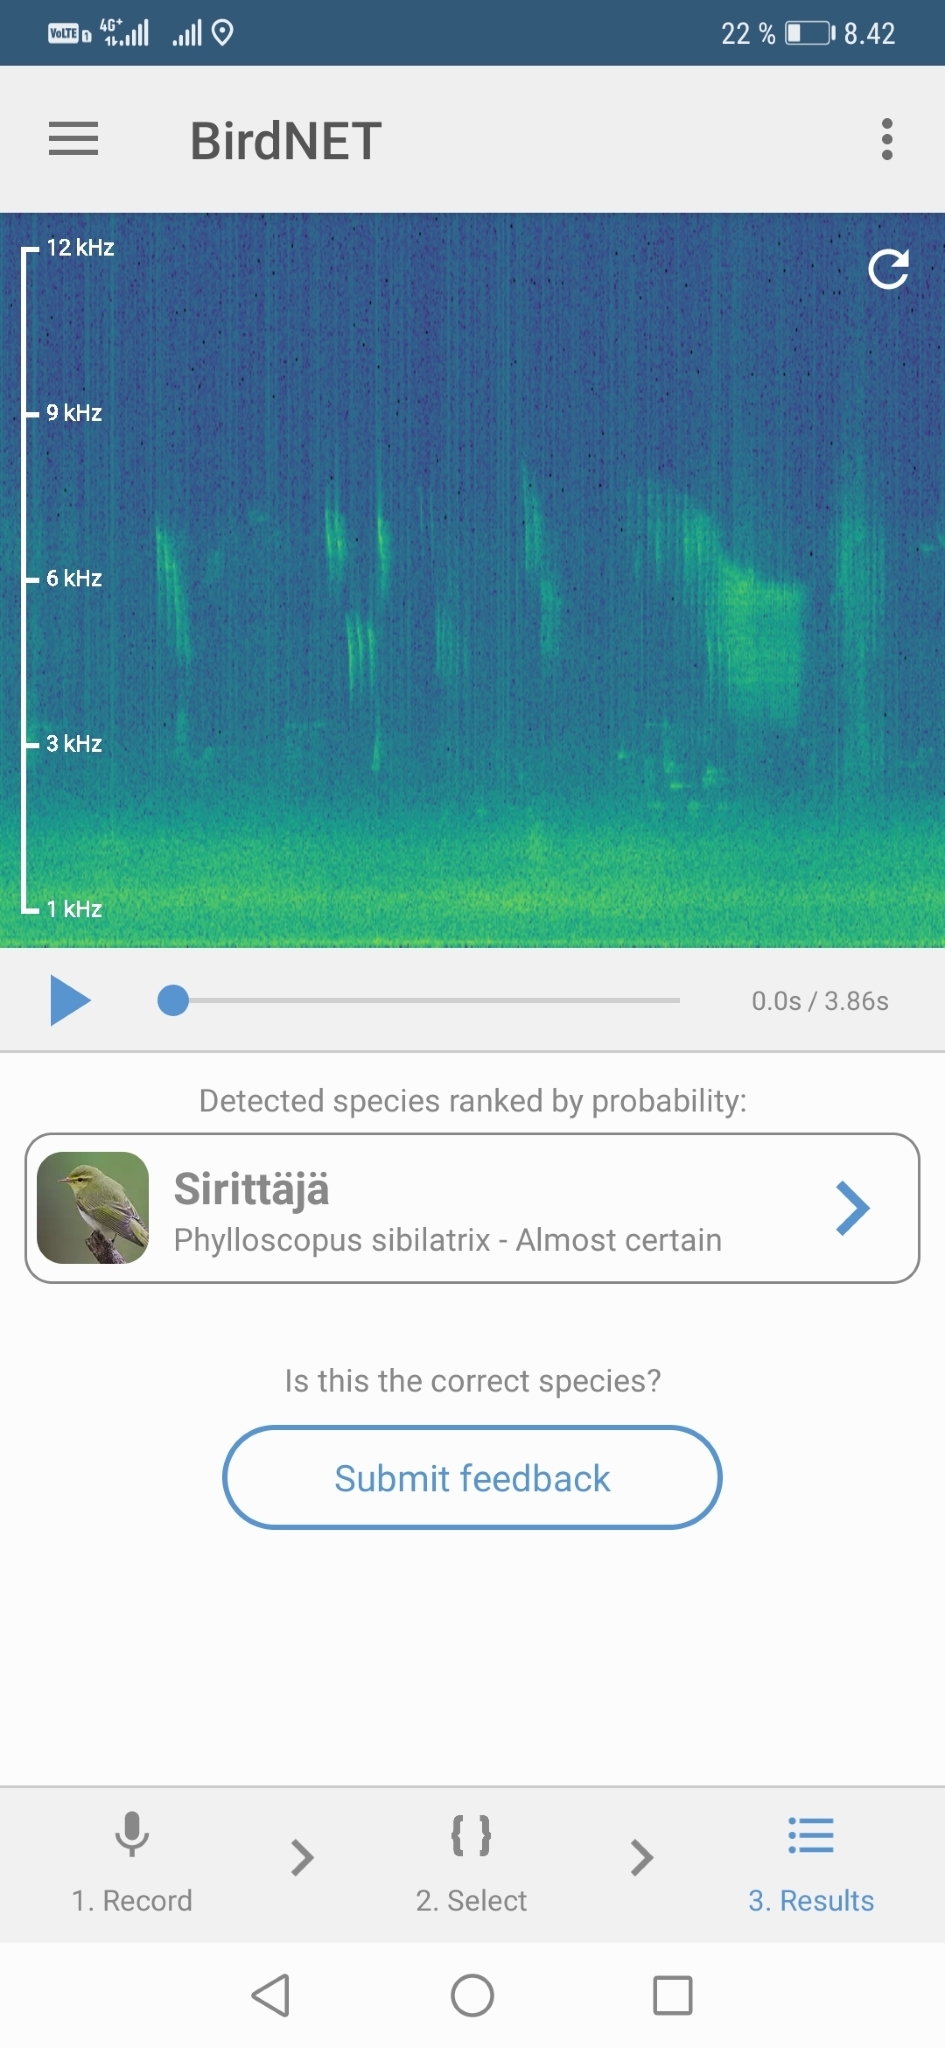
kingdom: Animalia
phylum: Chordata
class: Aves
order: Passeriformes
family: Phylloscopidae
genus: Phylloscopus
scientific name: Phylloscopus sibillatrix
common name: Wood warbler
